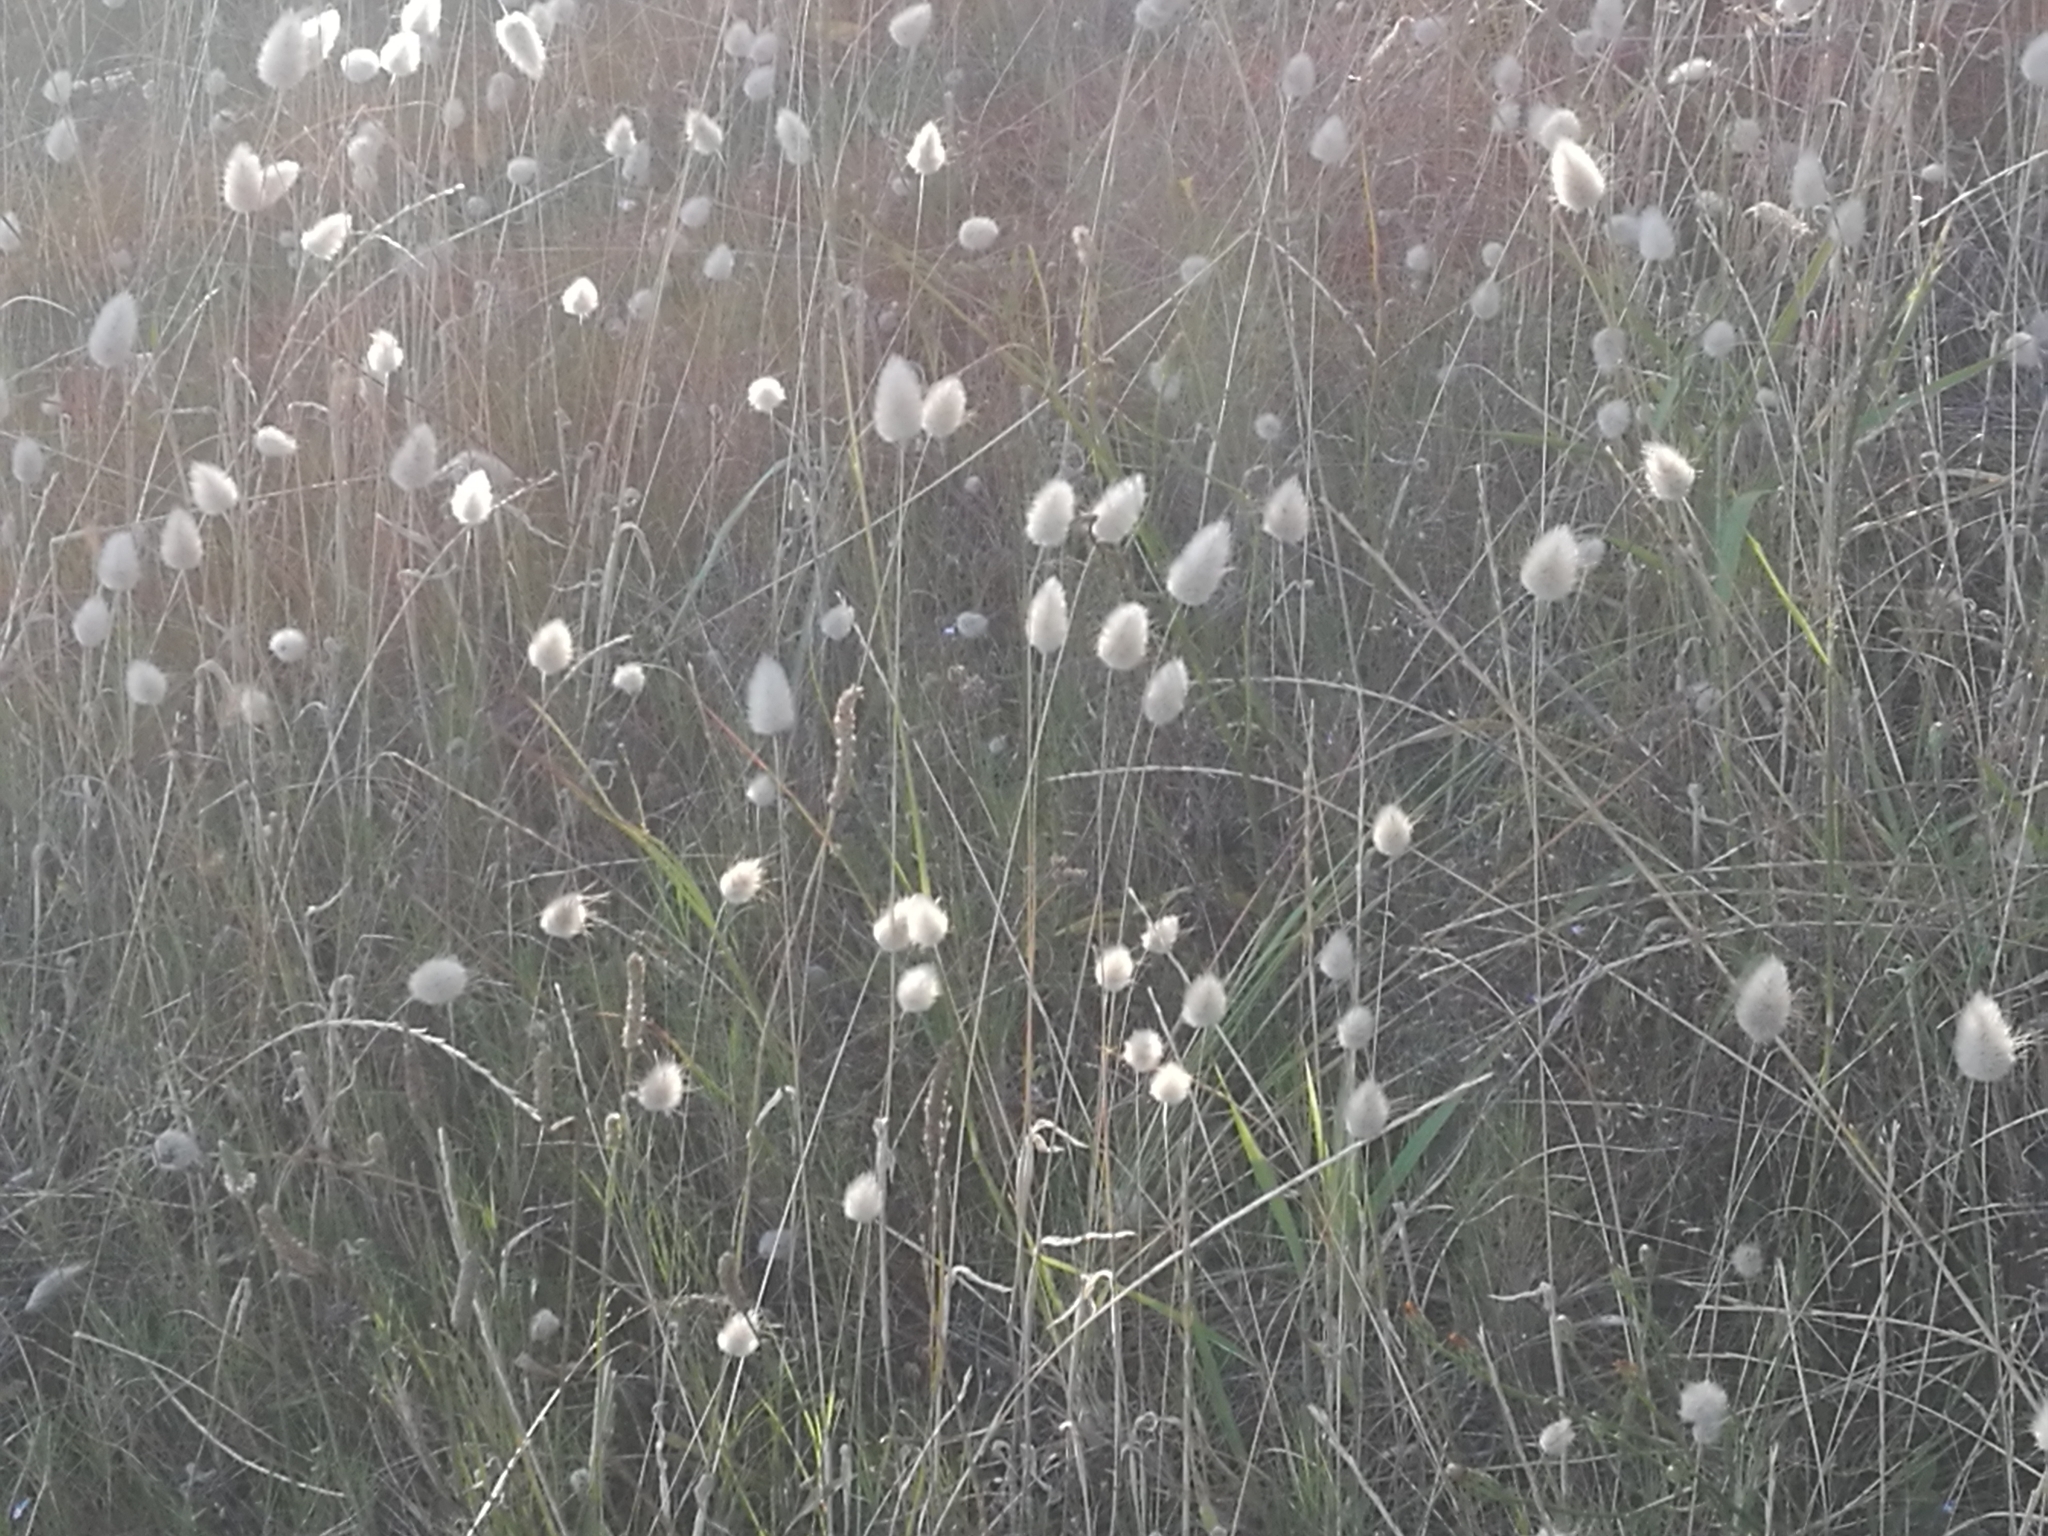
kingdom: Plantae
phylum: Tracheophyta
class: Liliopsida
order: Poales
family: Poaceae
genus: Lagurus
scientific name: Lagurus ovatus
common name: Hare's-tail
